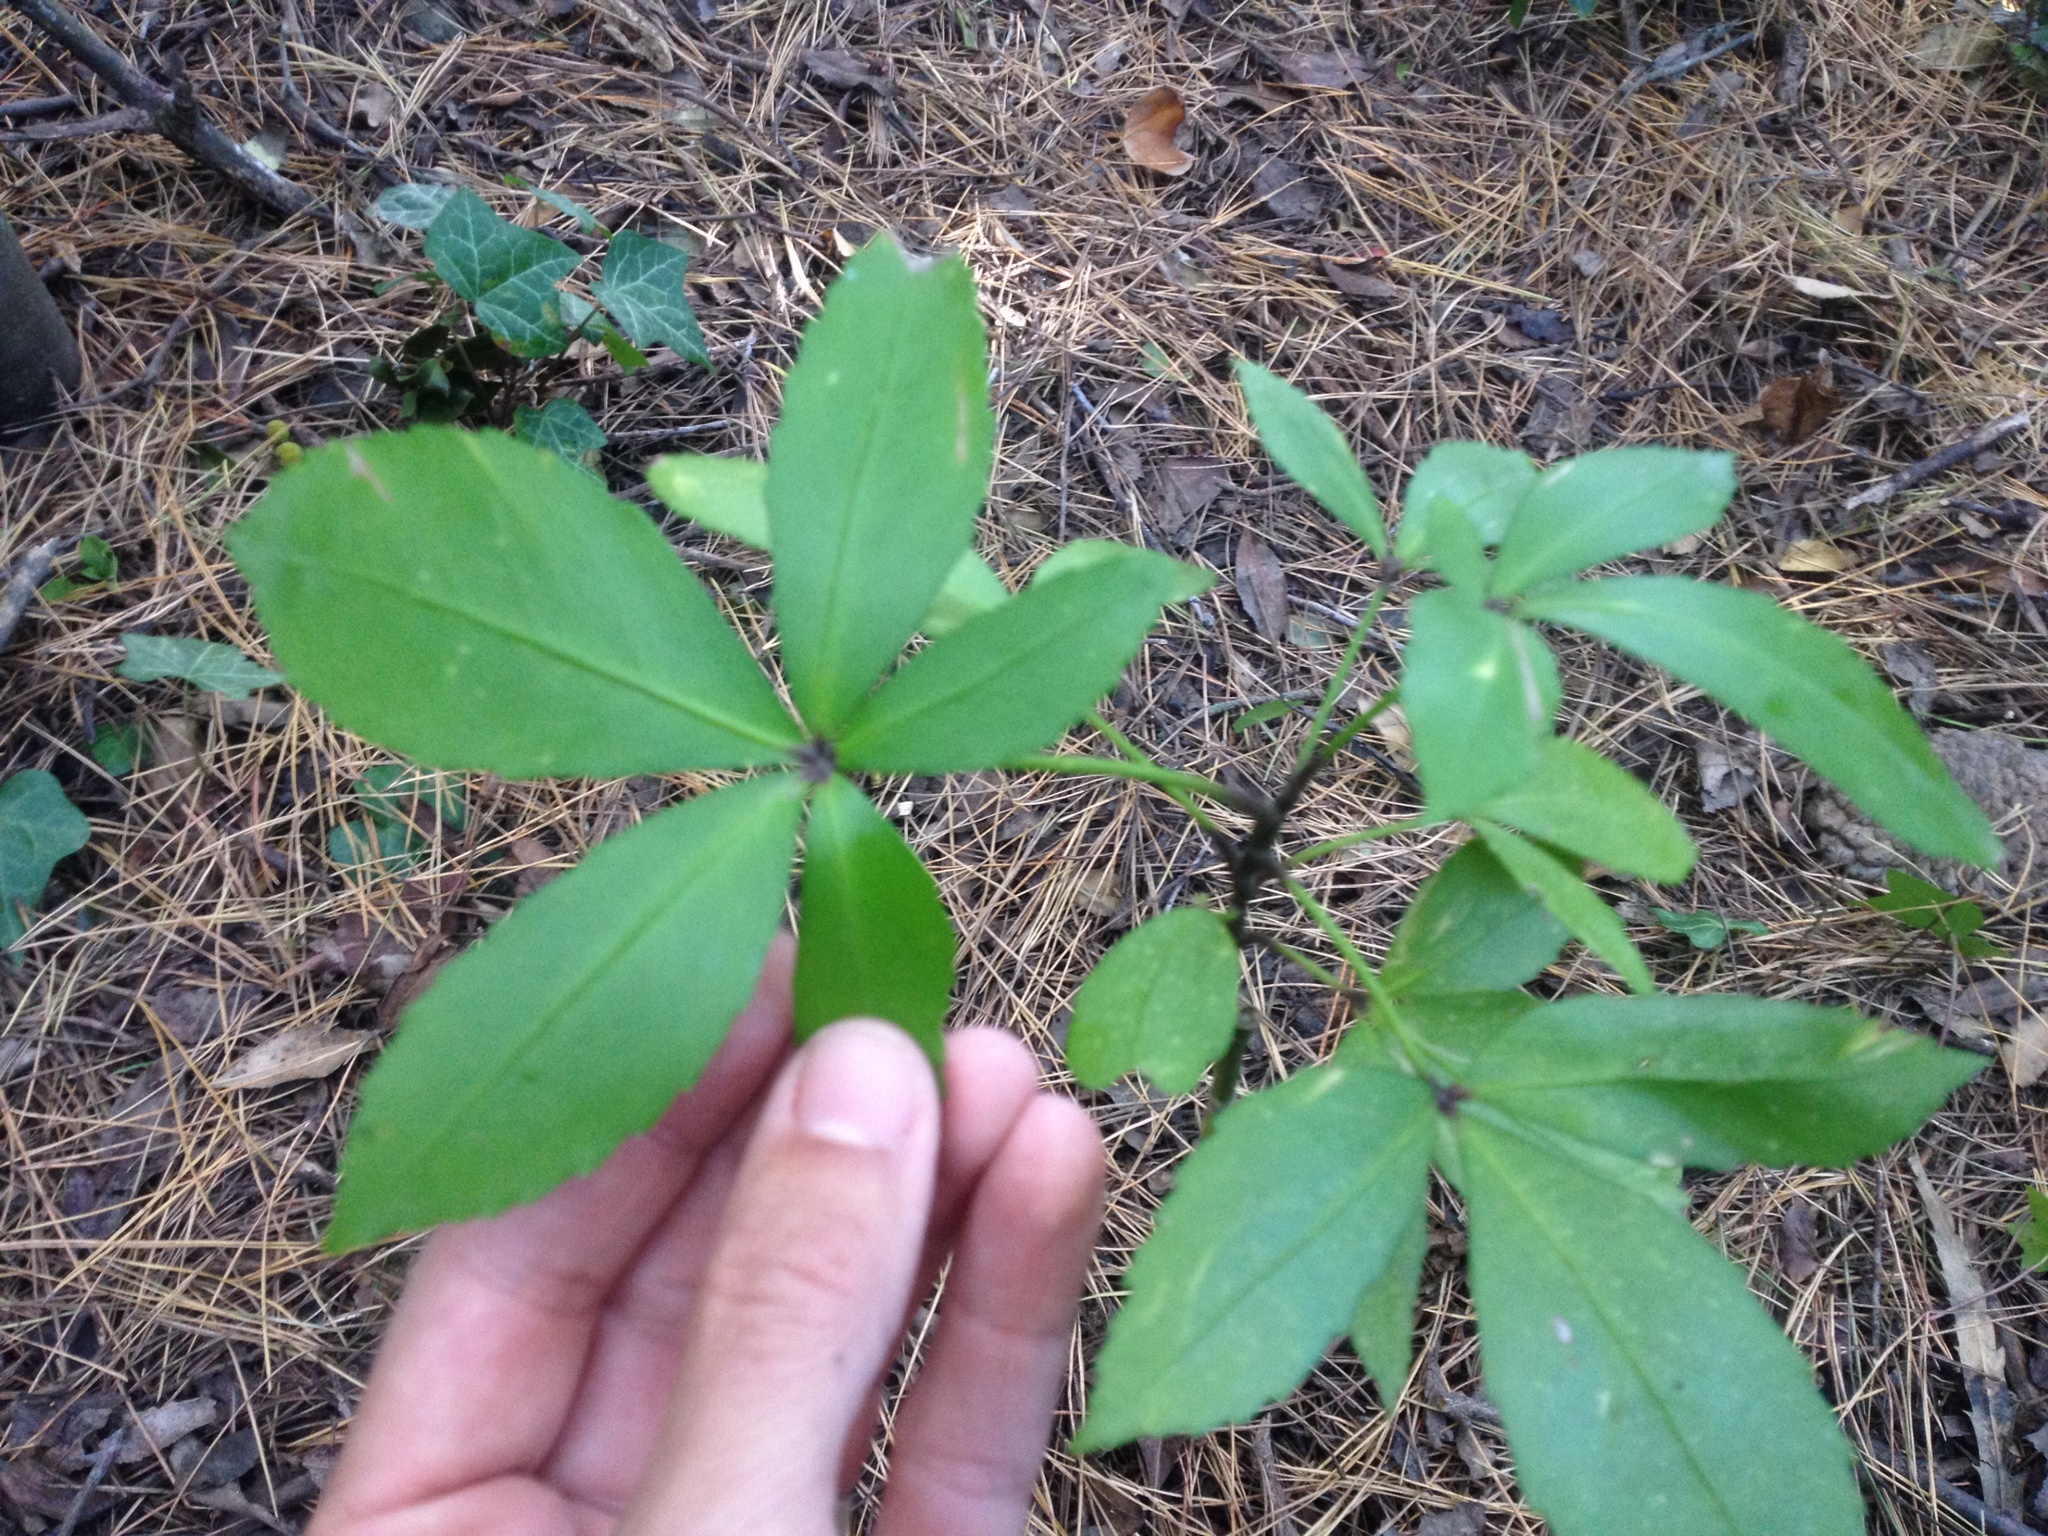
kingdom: Plantae
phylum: Tracheophyta
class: Magnoliopsida
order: Apiales
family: Araliaceae
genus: Pseudopanax
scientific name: Pseudopanax lessonii
